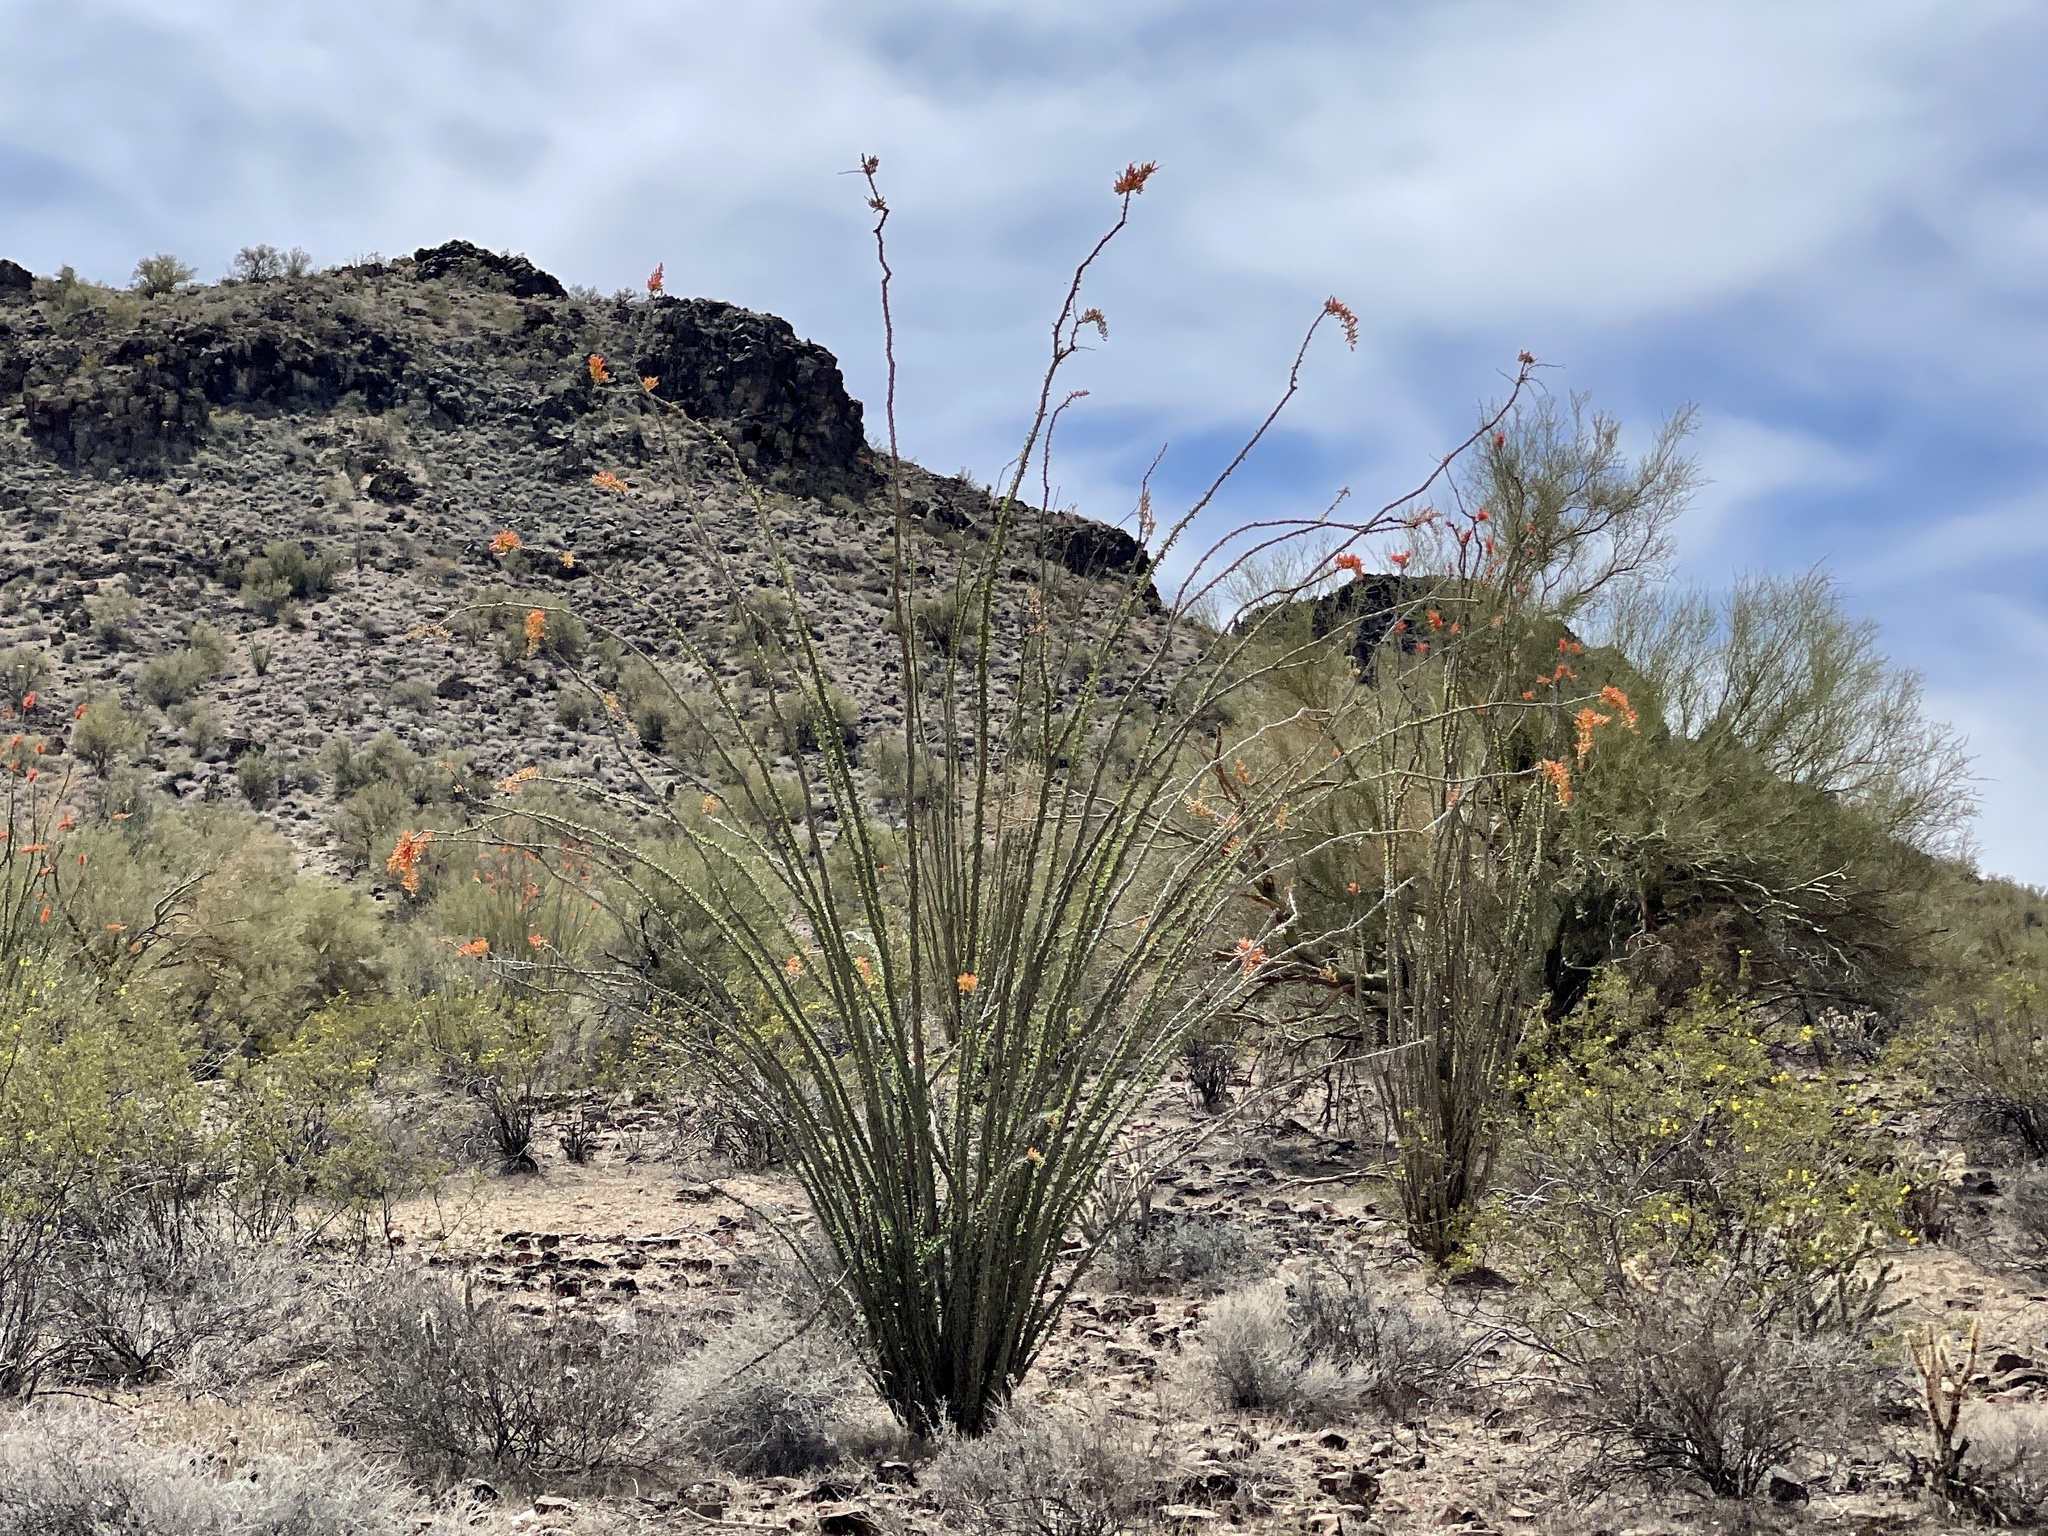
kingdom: Plantae
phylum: Tracheophyta
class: Magnoliopsida
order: Ericales
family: Fouquieriaceae
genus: Fouquieria
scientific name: Fouquieria splendens
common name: Vine-cactus
